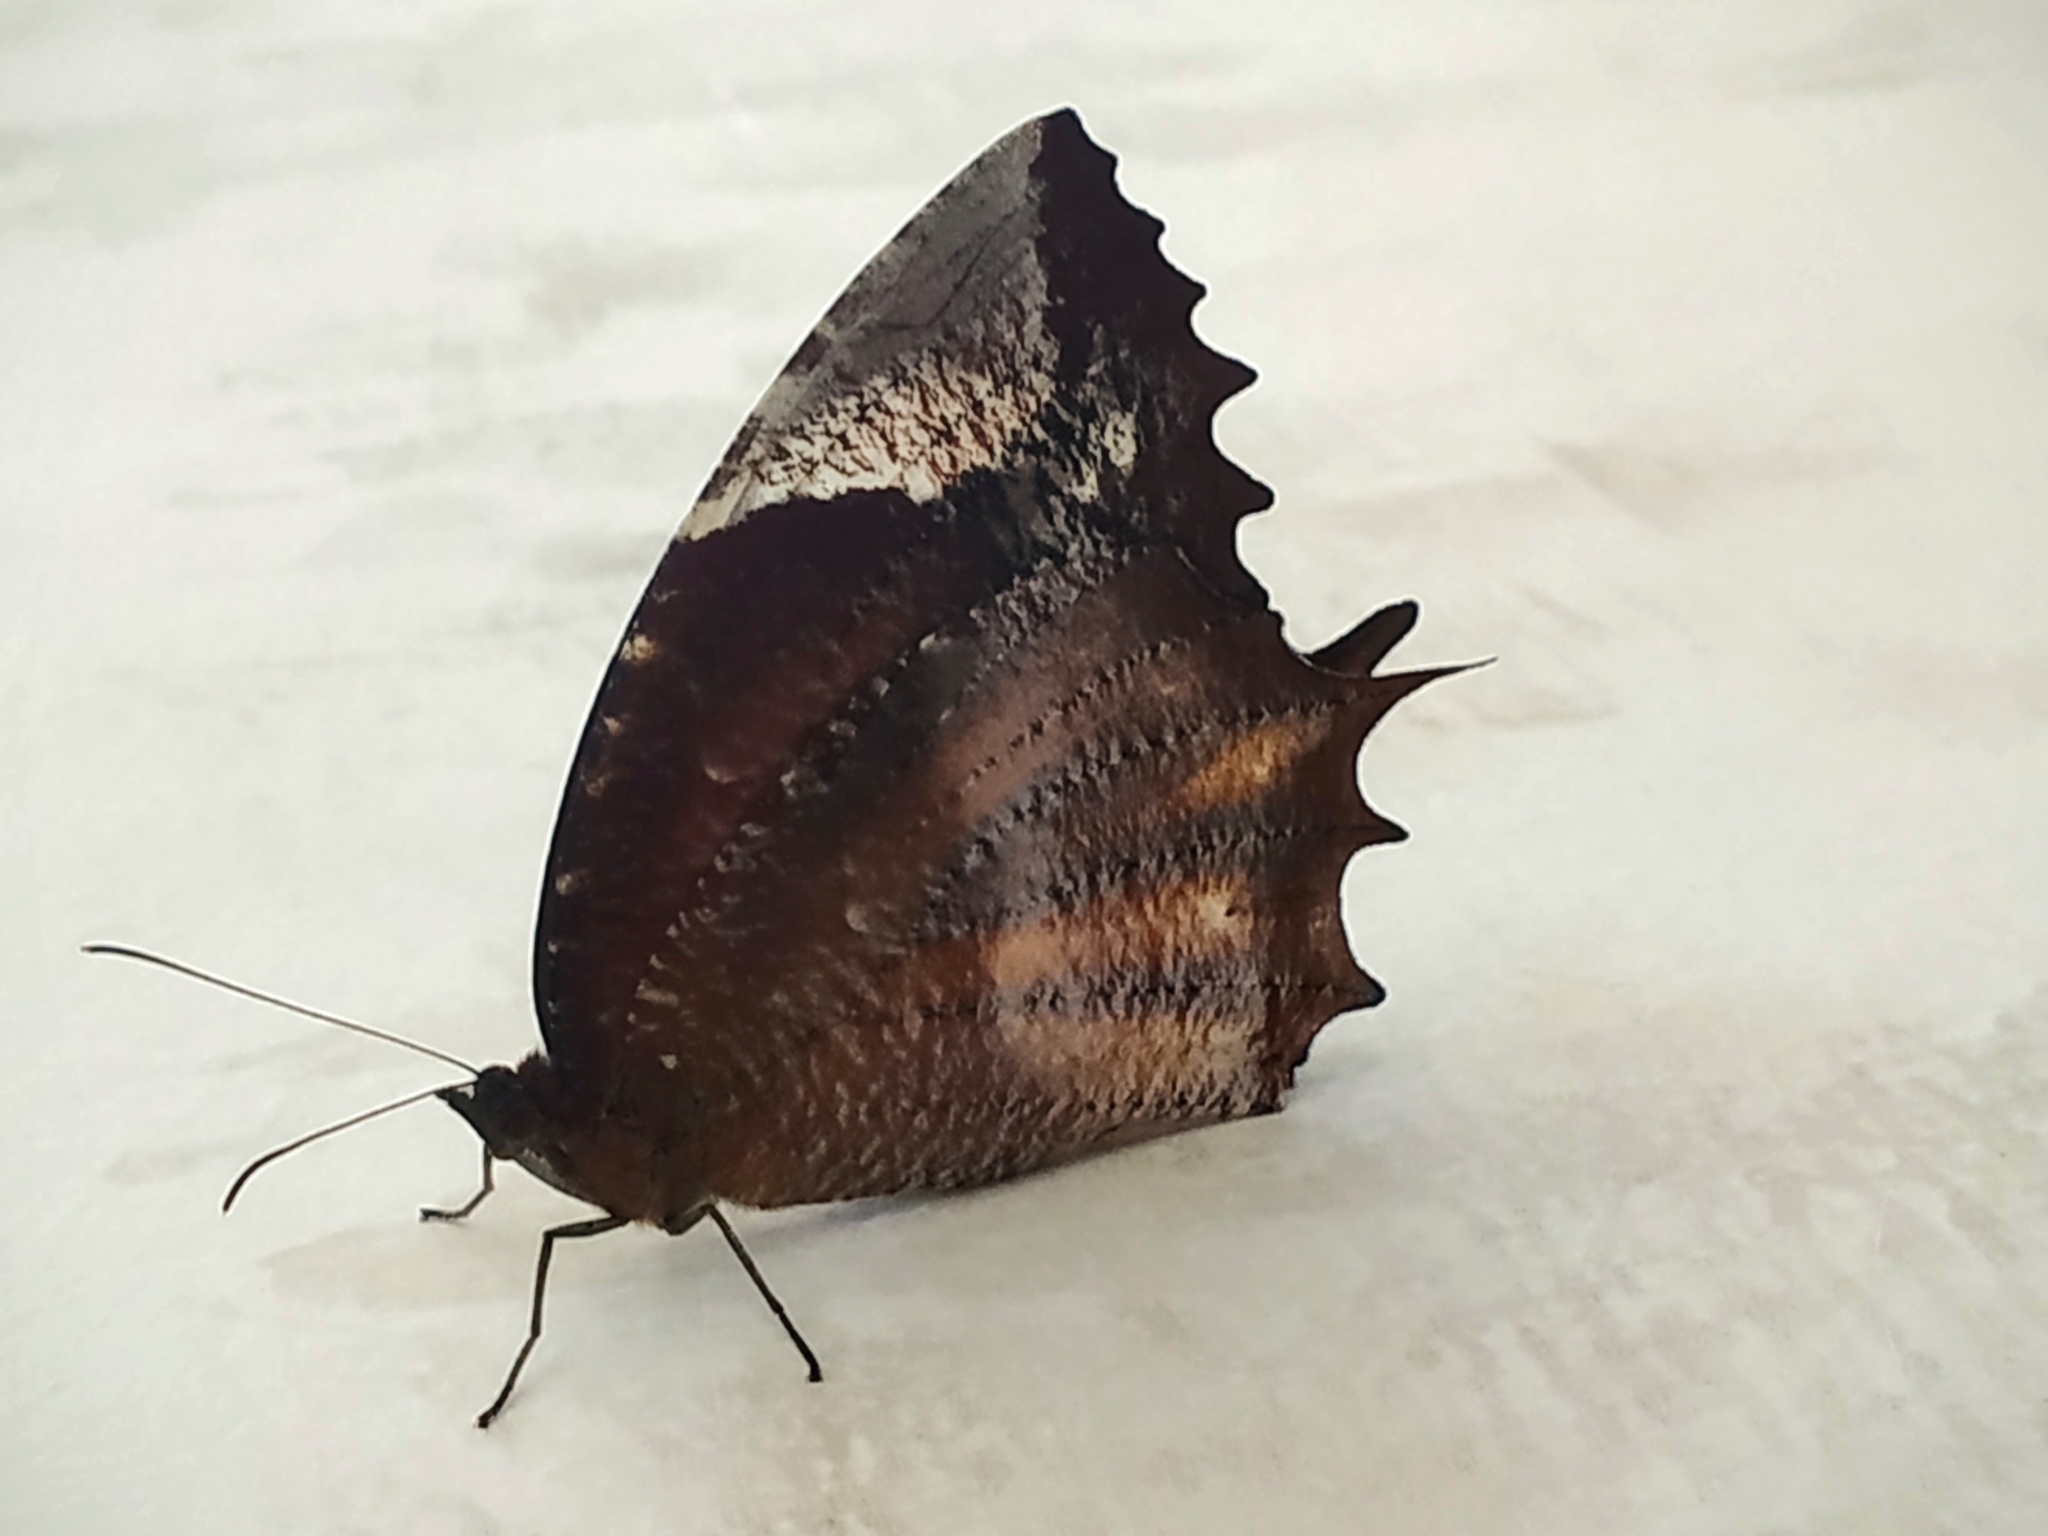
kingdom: Animalia
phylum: Arthropoda
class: Insecta
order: Lepidoptera
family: Nymphalidae
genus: Elymnias
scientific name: Elymnias caudata
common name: Tailed palmfly
